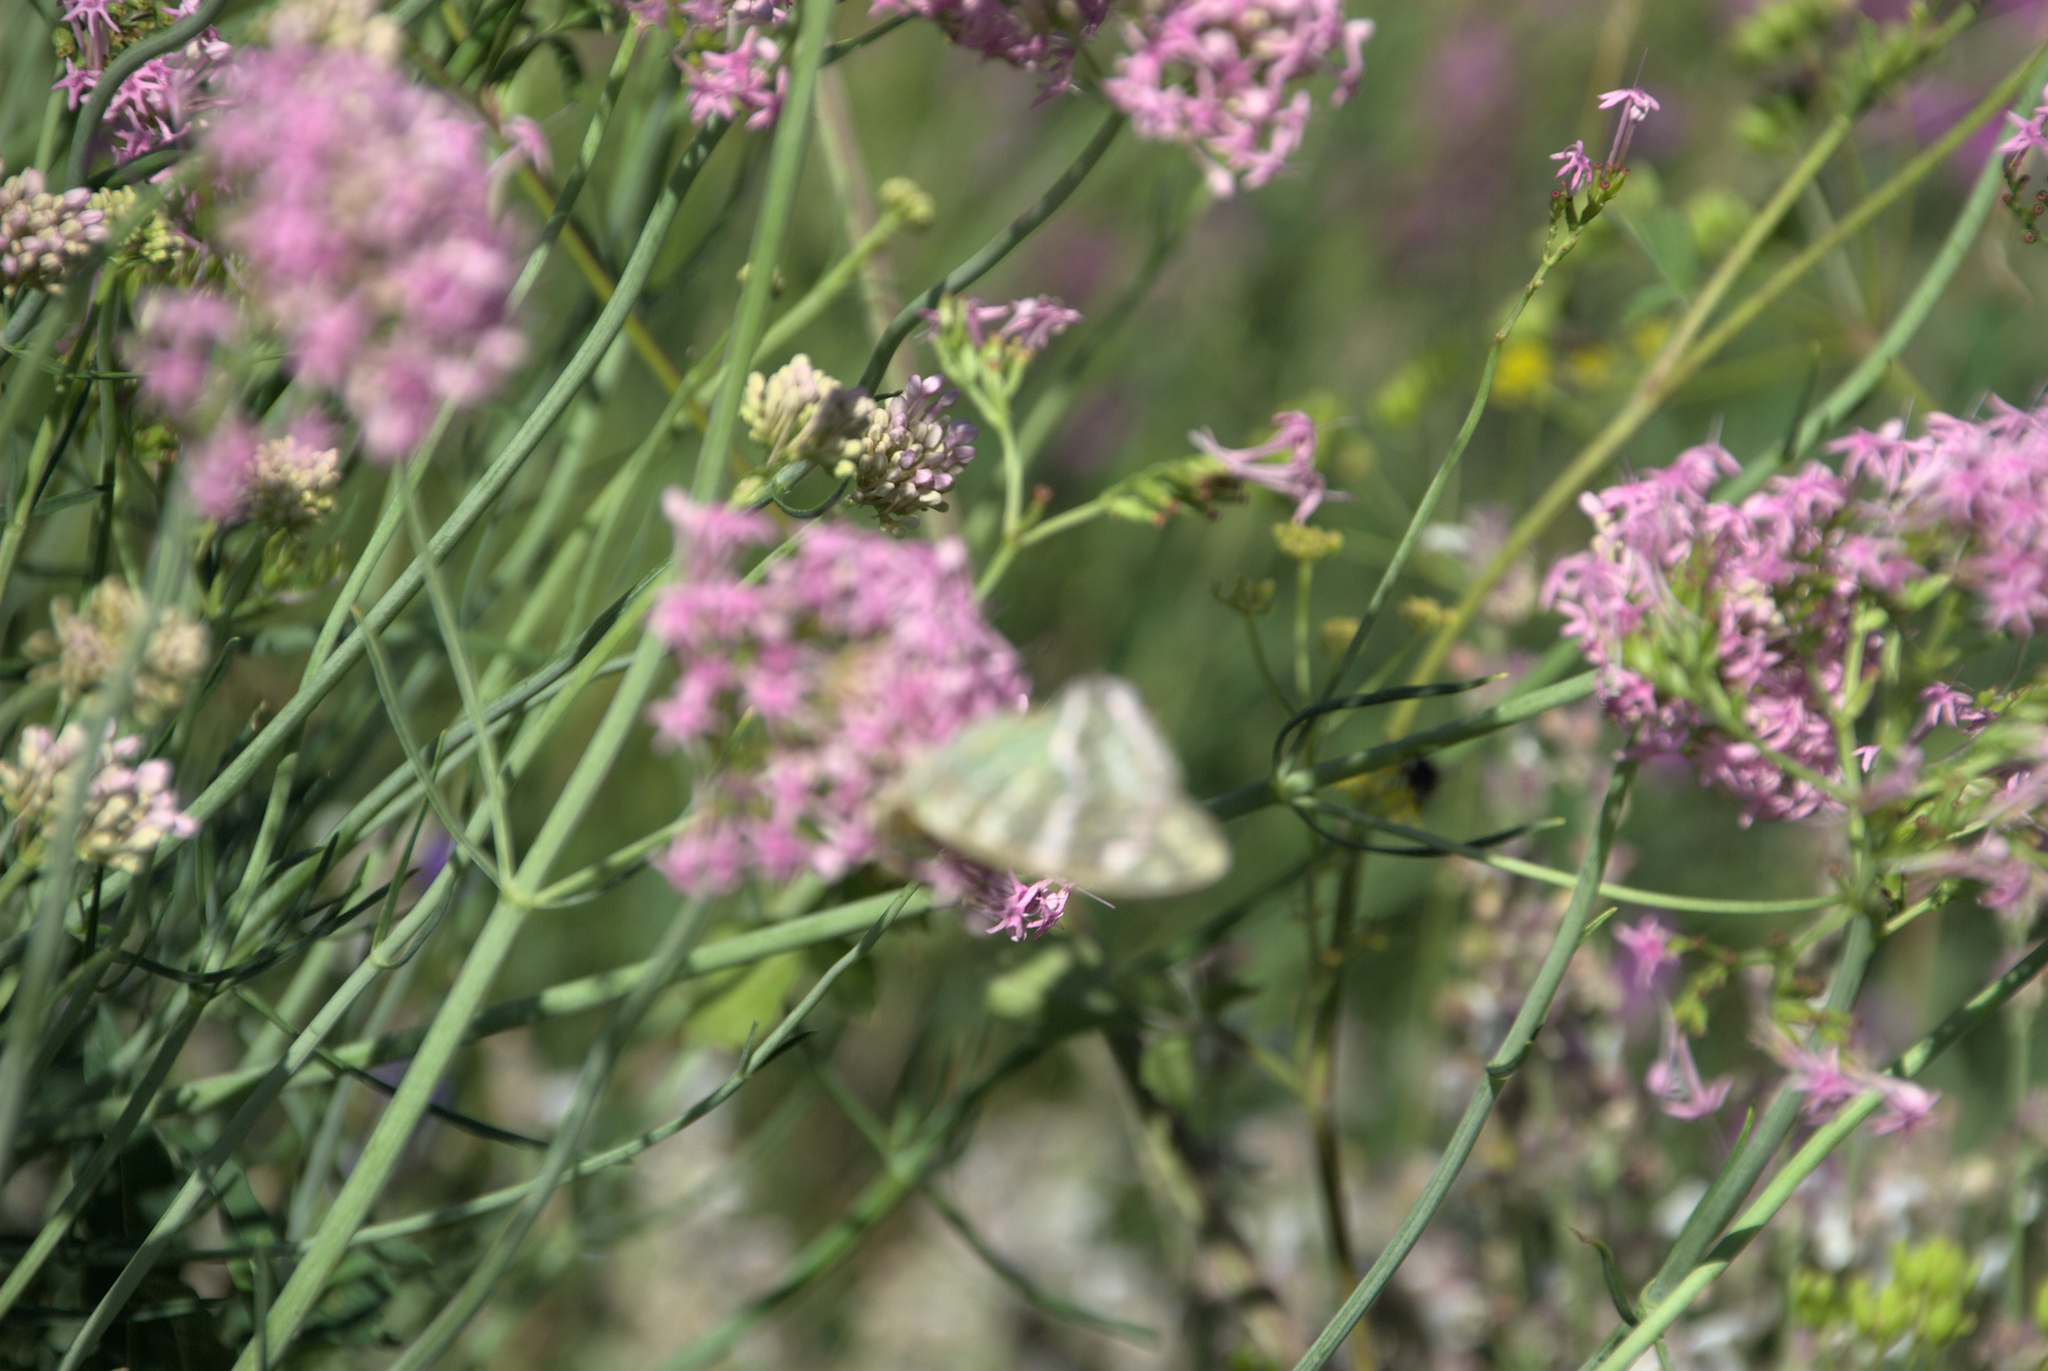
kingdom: Animalia
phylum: Arthropoda
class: Insecta
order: Lepidoptera
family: Nymphalidae
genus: Argynnis
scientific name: Argynnis paphia
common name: Silver-washed fritillary
